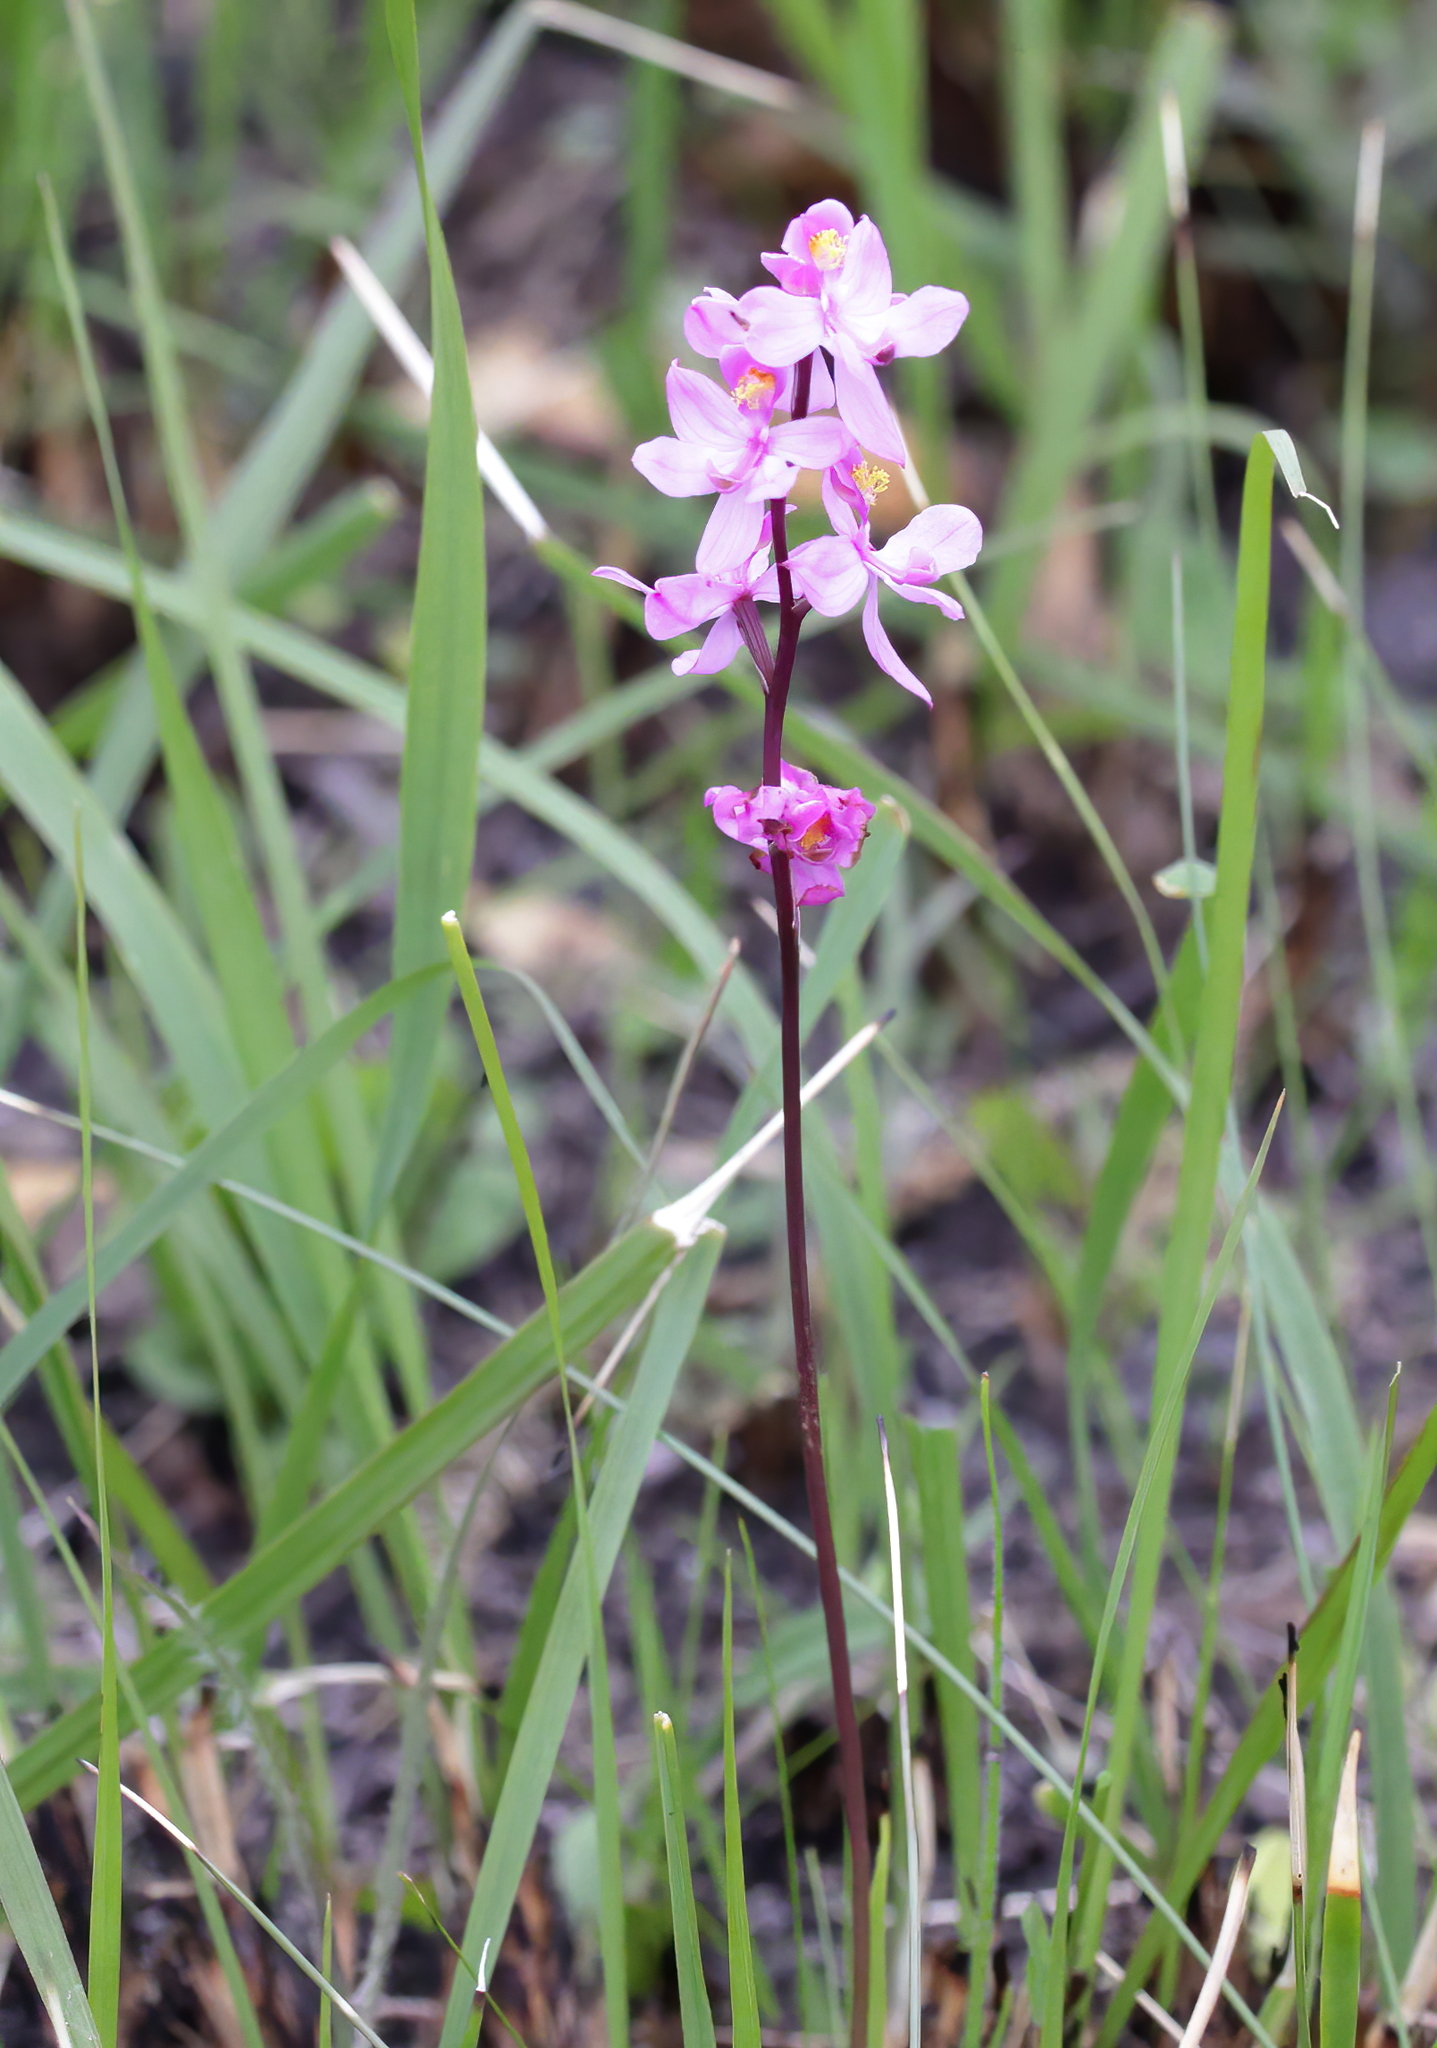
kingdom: Plantae
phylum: Tracheophyta
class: Liliopsida
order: Asparagales
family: Orchidaceae
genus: Calopogon
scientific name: Calopogon multiflorus
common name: Many-flowered grass-pink orchid
